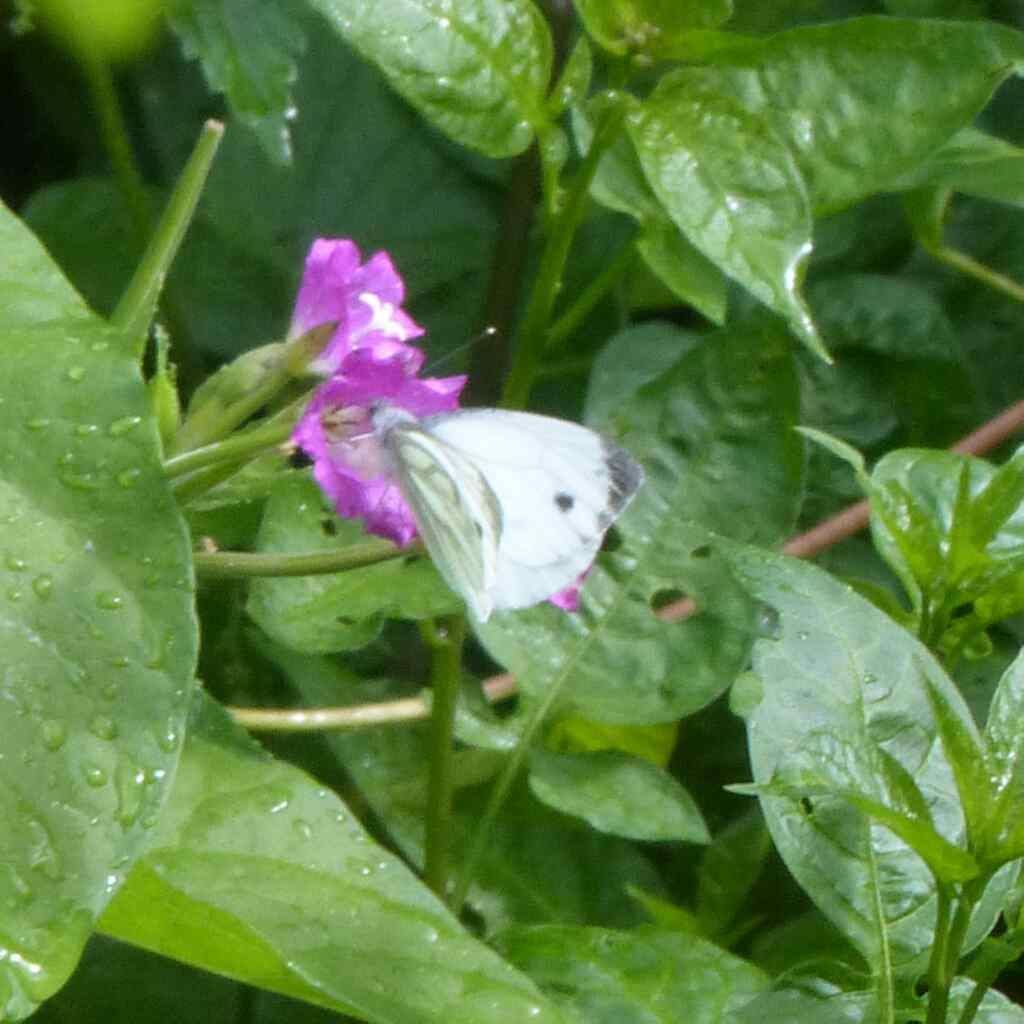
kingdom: Animalia
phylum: Arthropoda
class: Insecta
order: Lepidoptera
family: Pieridae
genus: Pieris
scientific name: Pieris napi
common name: Green-veined white
